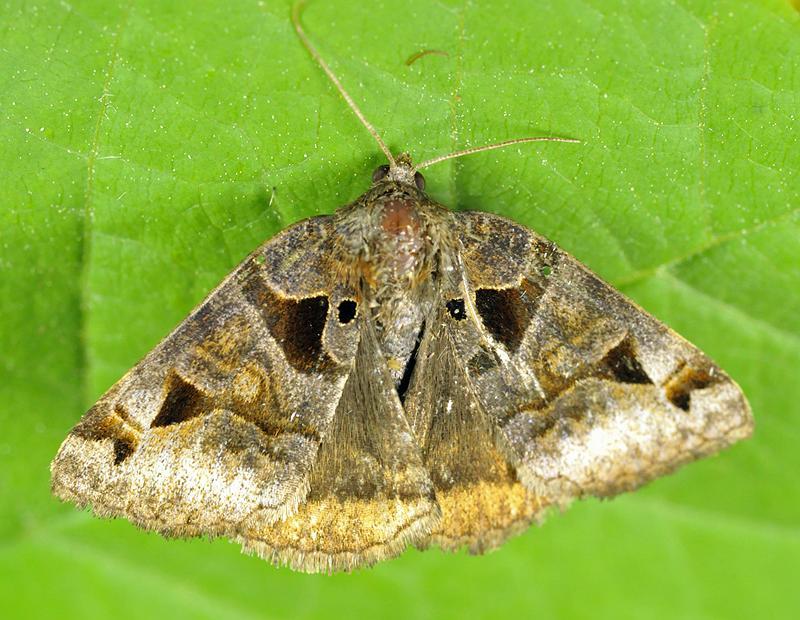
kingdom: Animalia
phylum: Arthropoda
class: Insecta
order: Lepidoptera
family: Erebidae
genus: Euclidia
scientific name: Euclidia cuspidea
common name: Toothed somberwing
